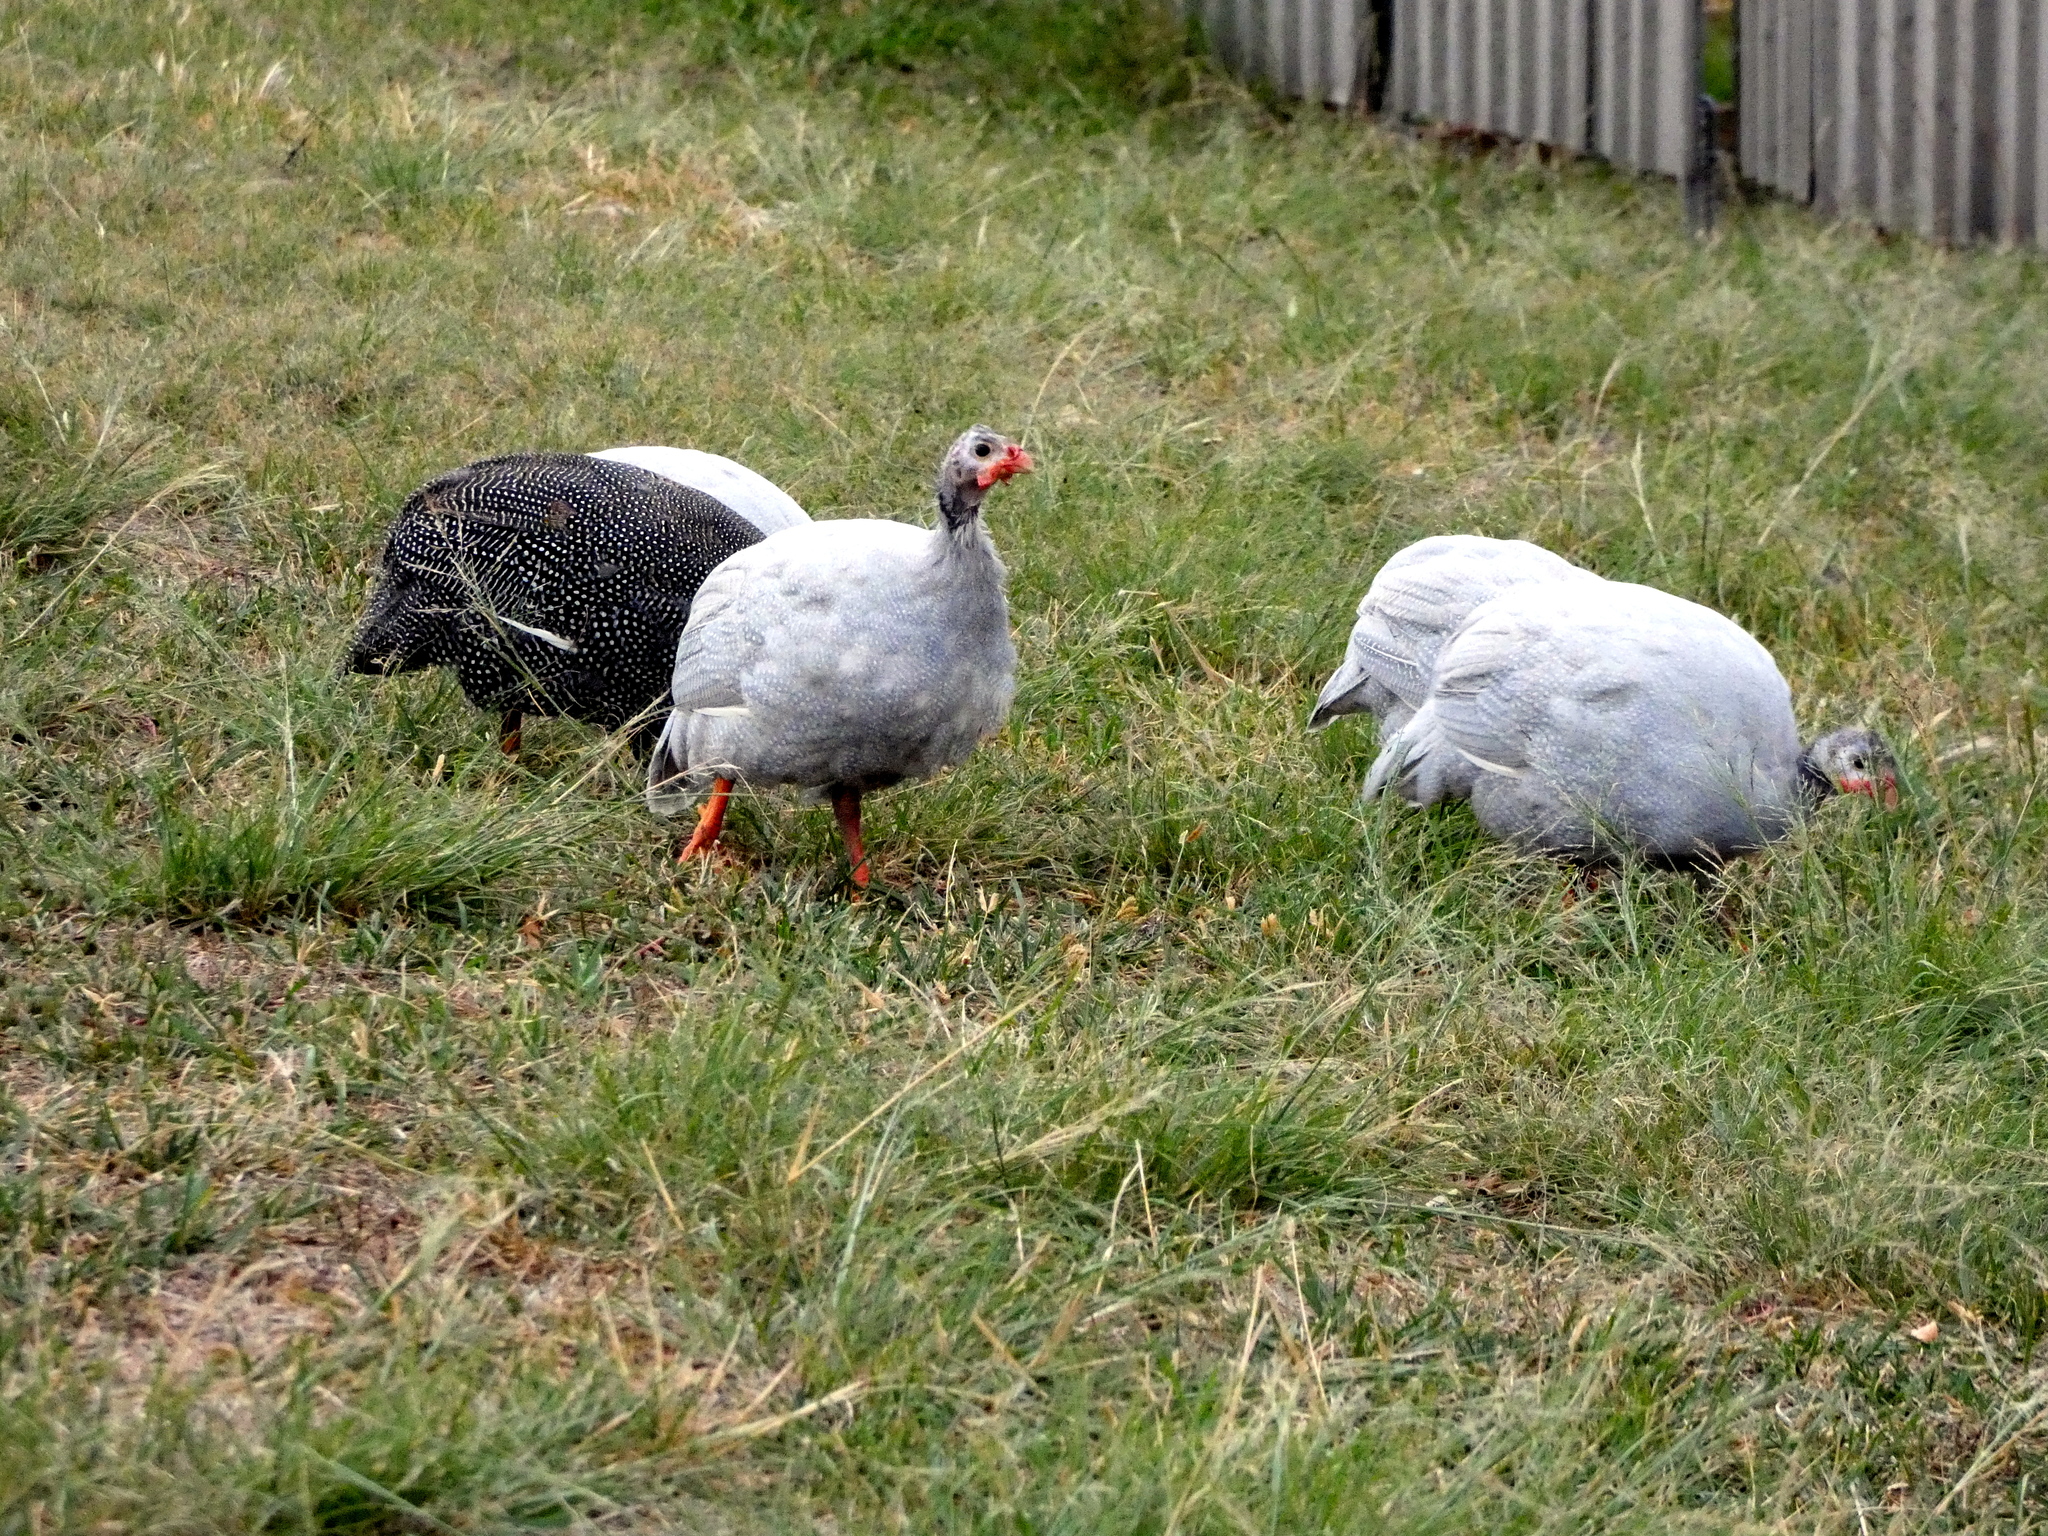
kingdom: Animalia
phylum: Chordata
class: Aves
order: Galliformes
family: Numididae
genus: Numida
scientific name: Numida meleagris
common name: Helmeted guineafowl
